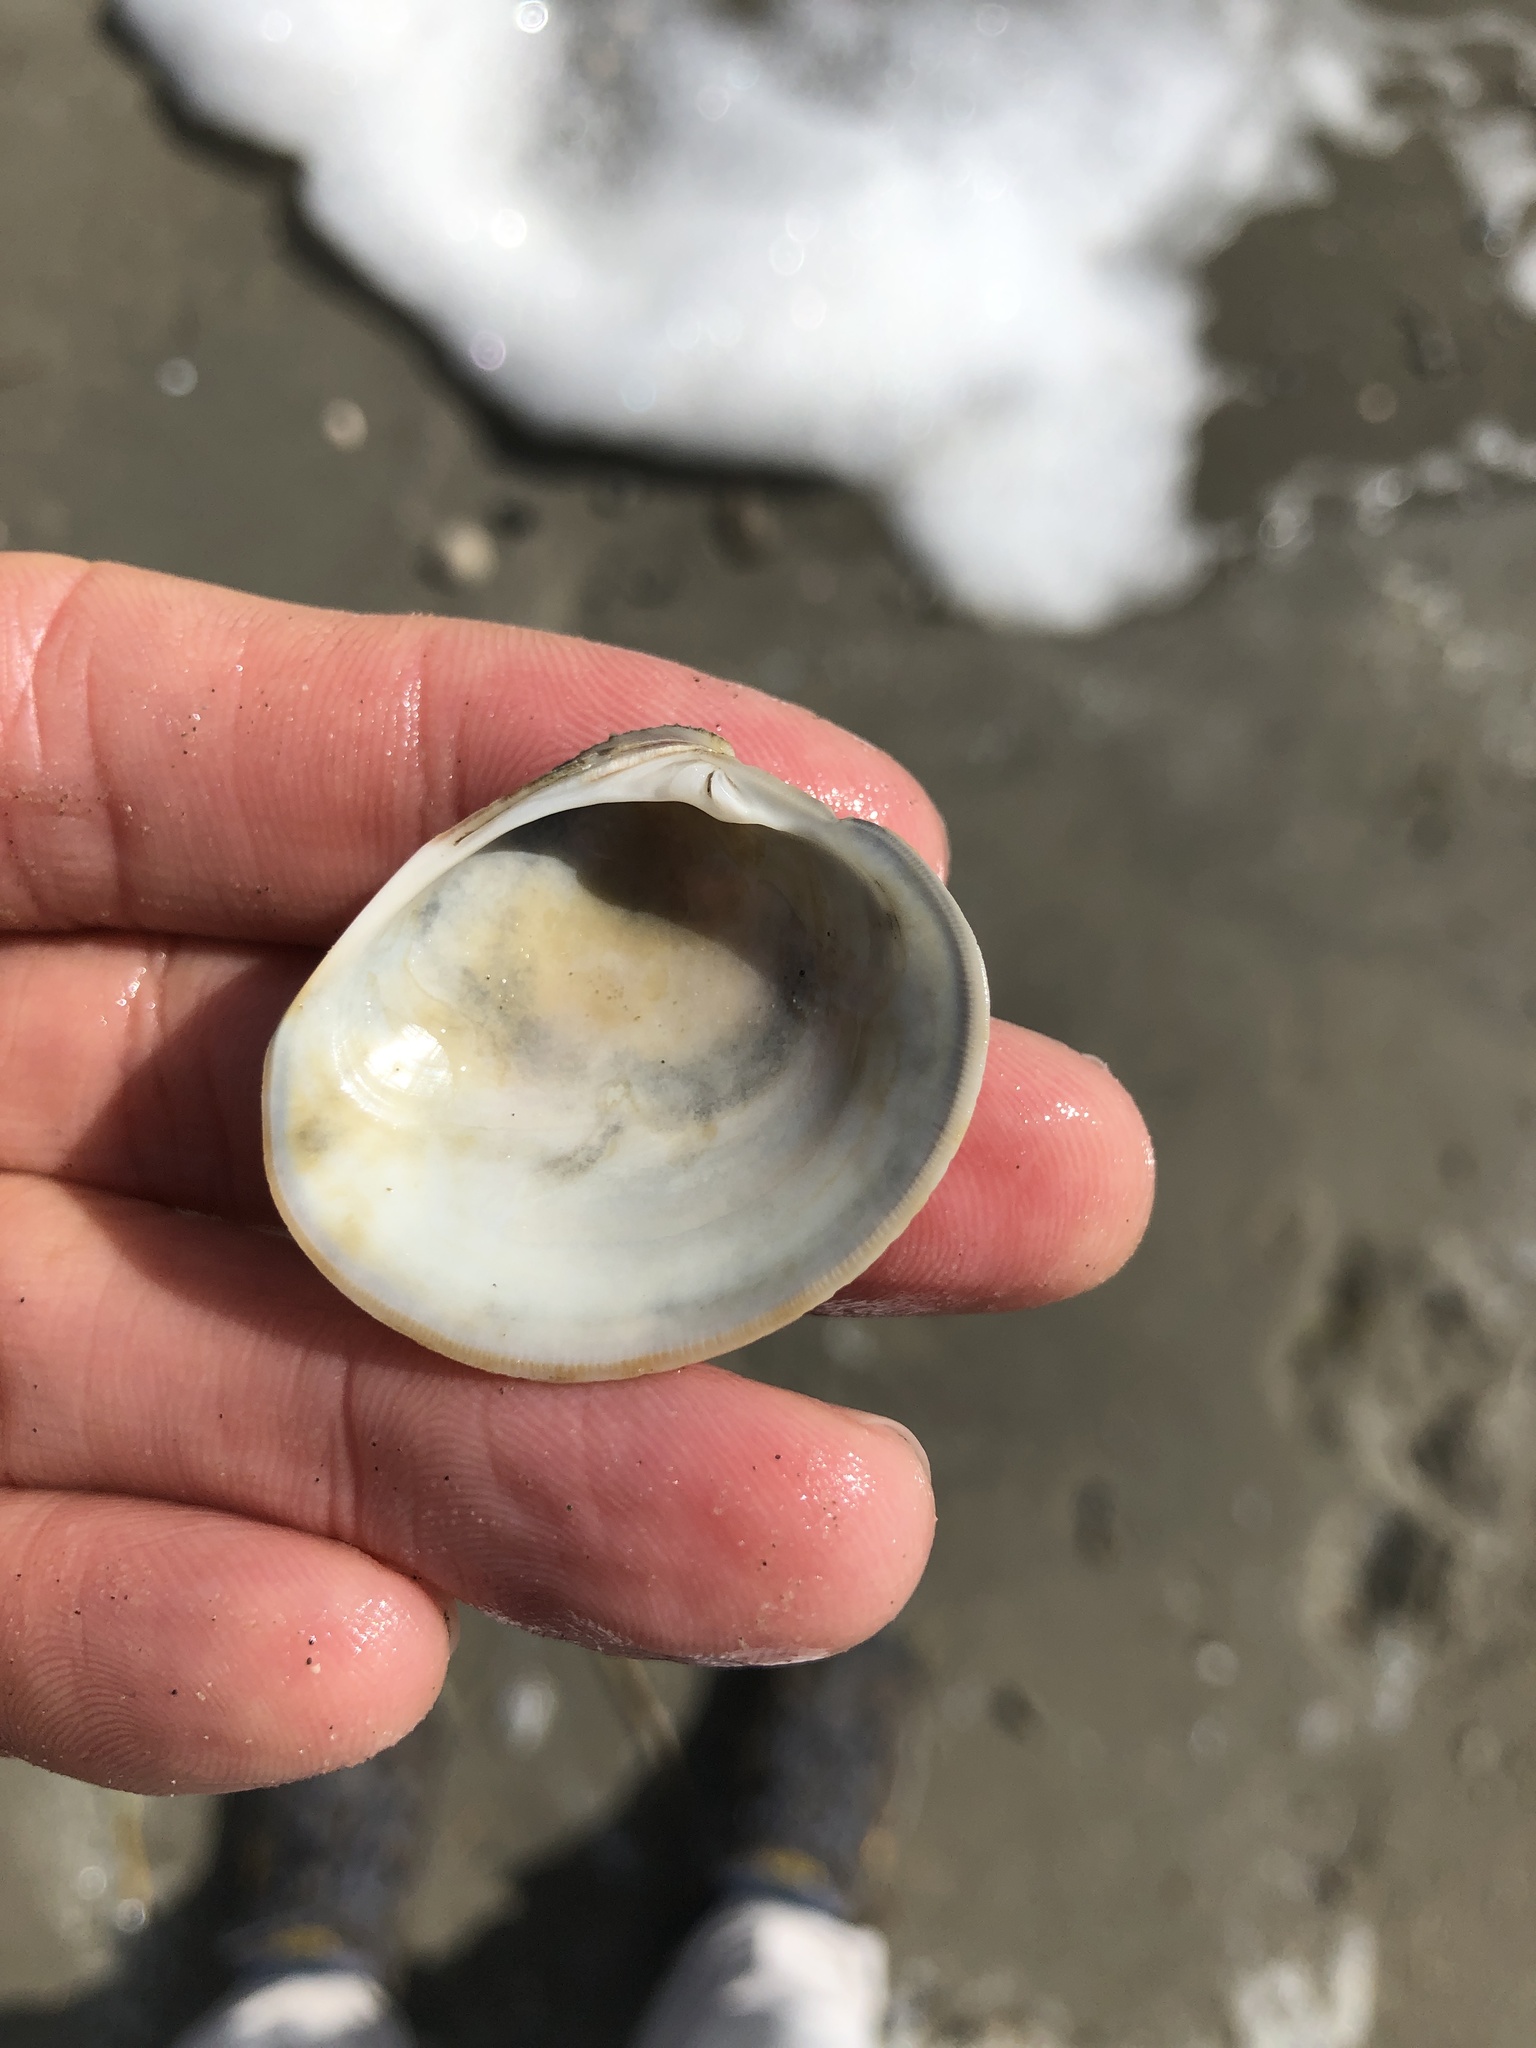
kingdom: Animalia
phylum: Mollusca
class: Bivalvia
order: Venerida
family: Veneridae
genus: Mercenaria
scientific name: Mercenaria
